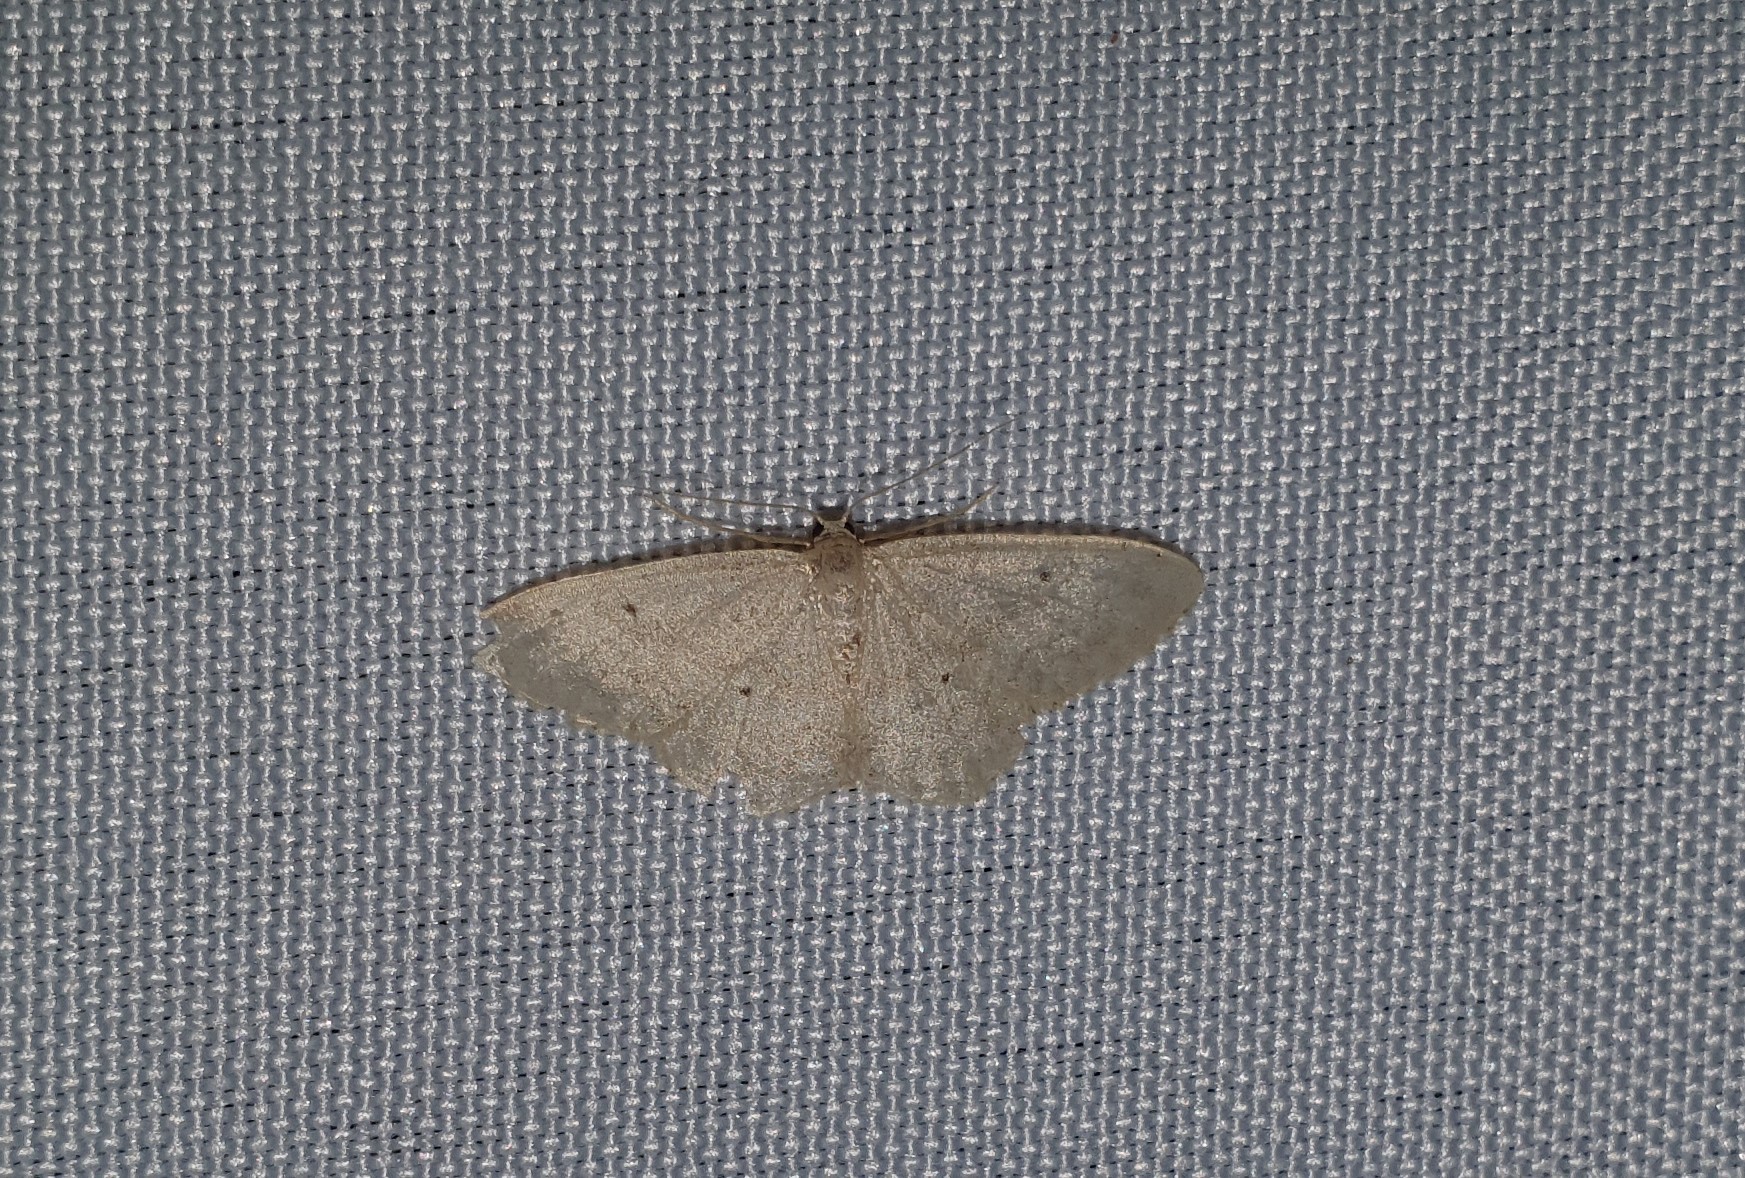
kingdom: Animalia
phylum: Arthropoda
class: Insecta
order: Lepidoptera
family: Geometridae
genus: Idaea
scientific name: Idaea biselata
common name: Small fan-footed wave
